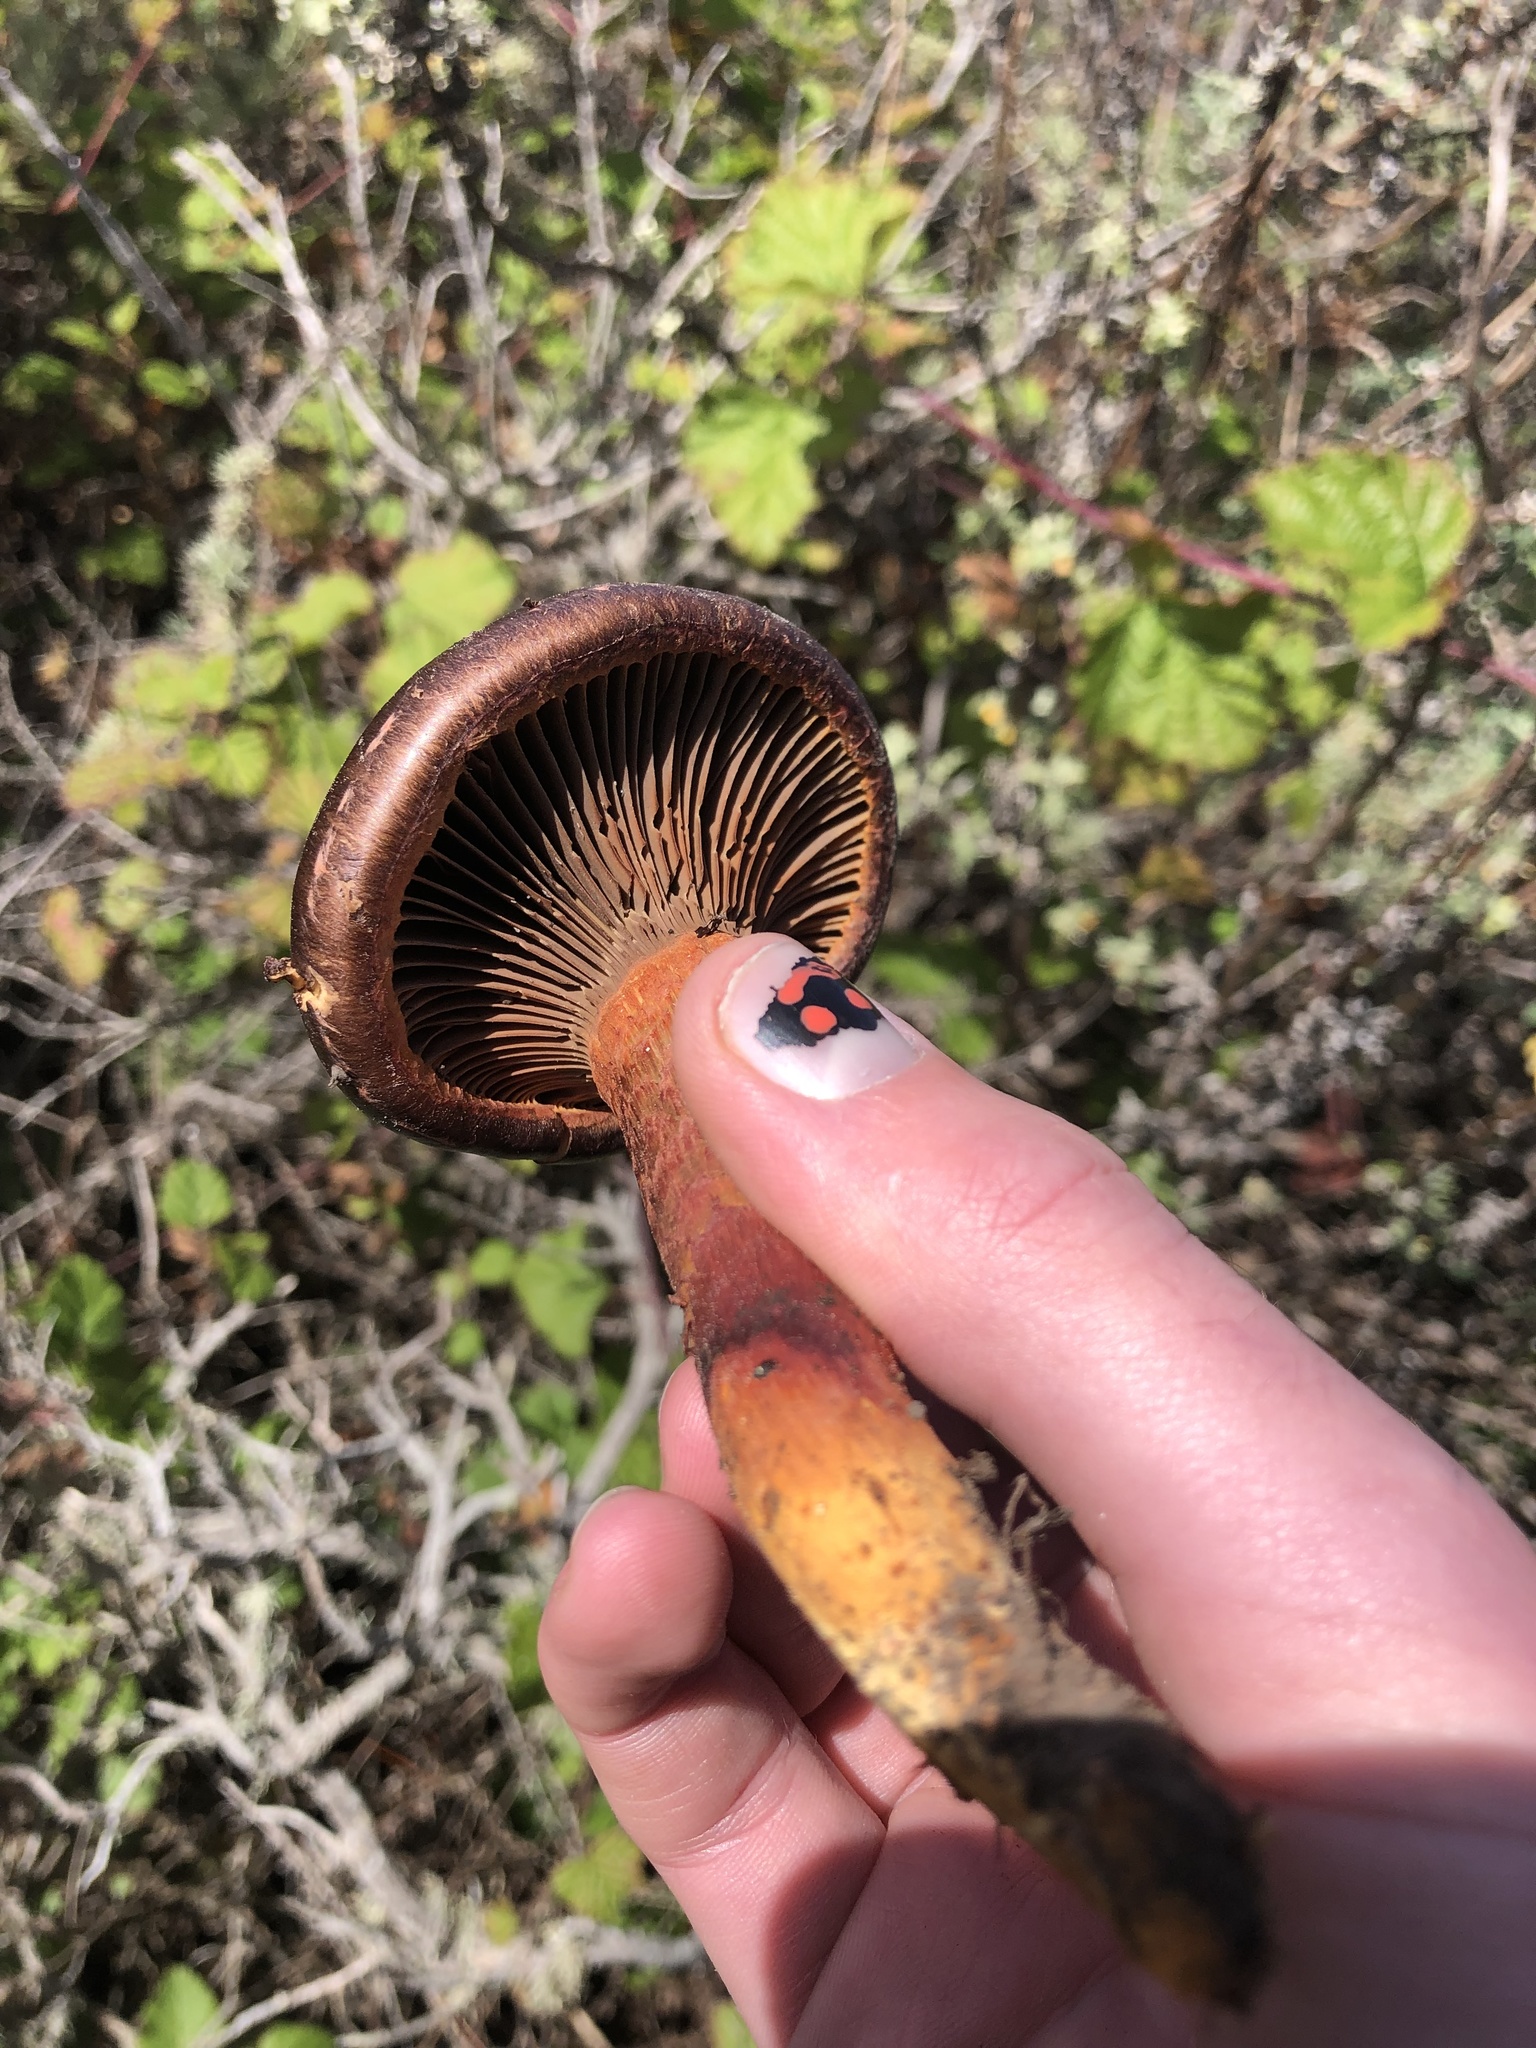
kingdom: Fungi
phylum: Basidiomycota
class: Agaricomycetes
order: Boletales
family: Gomphidiaceae
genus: Chroogomphus
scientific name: Chroogomphus vinicolor
